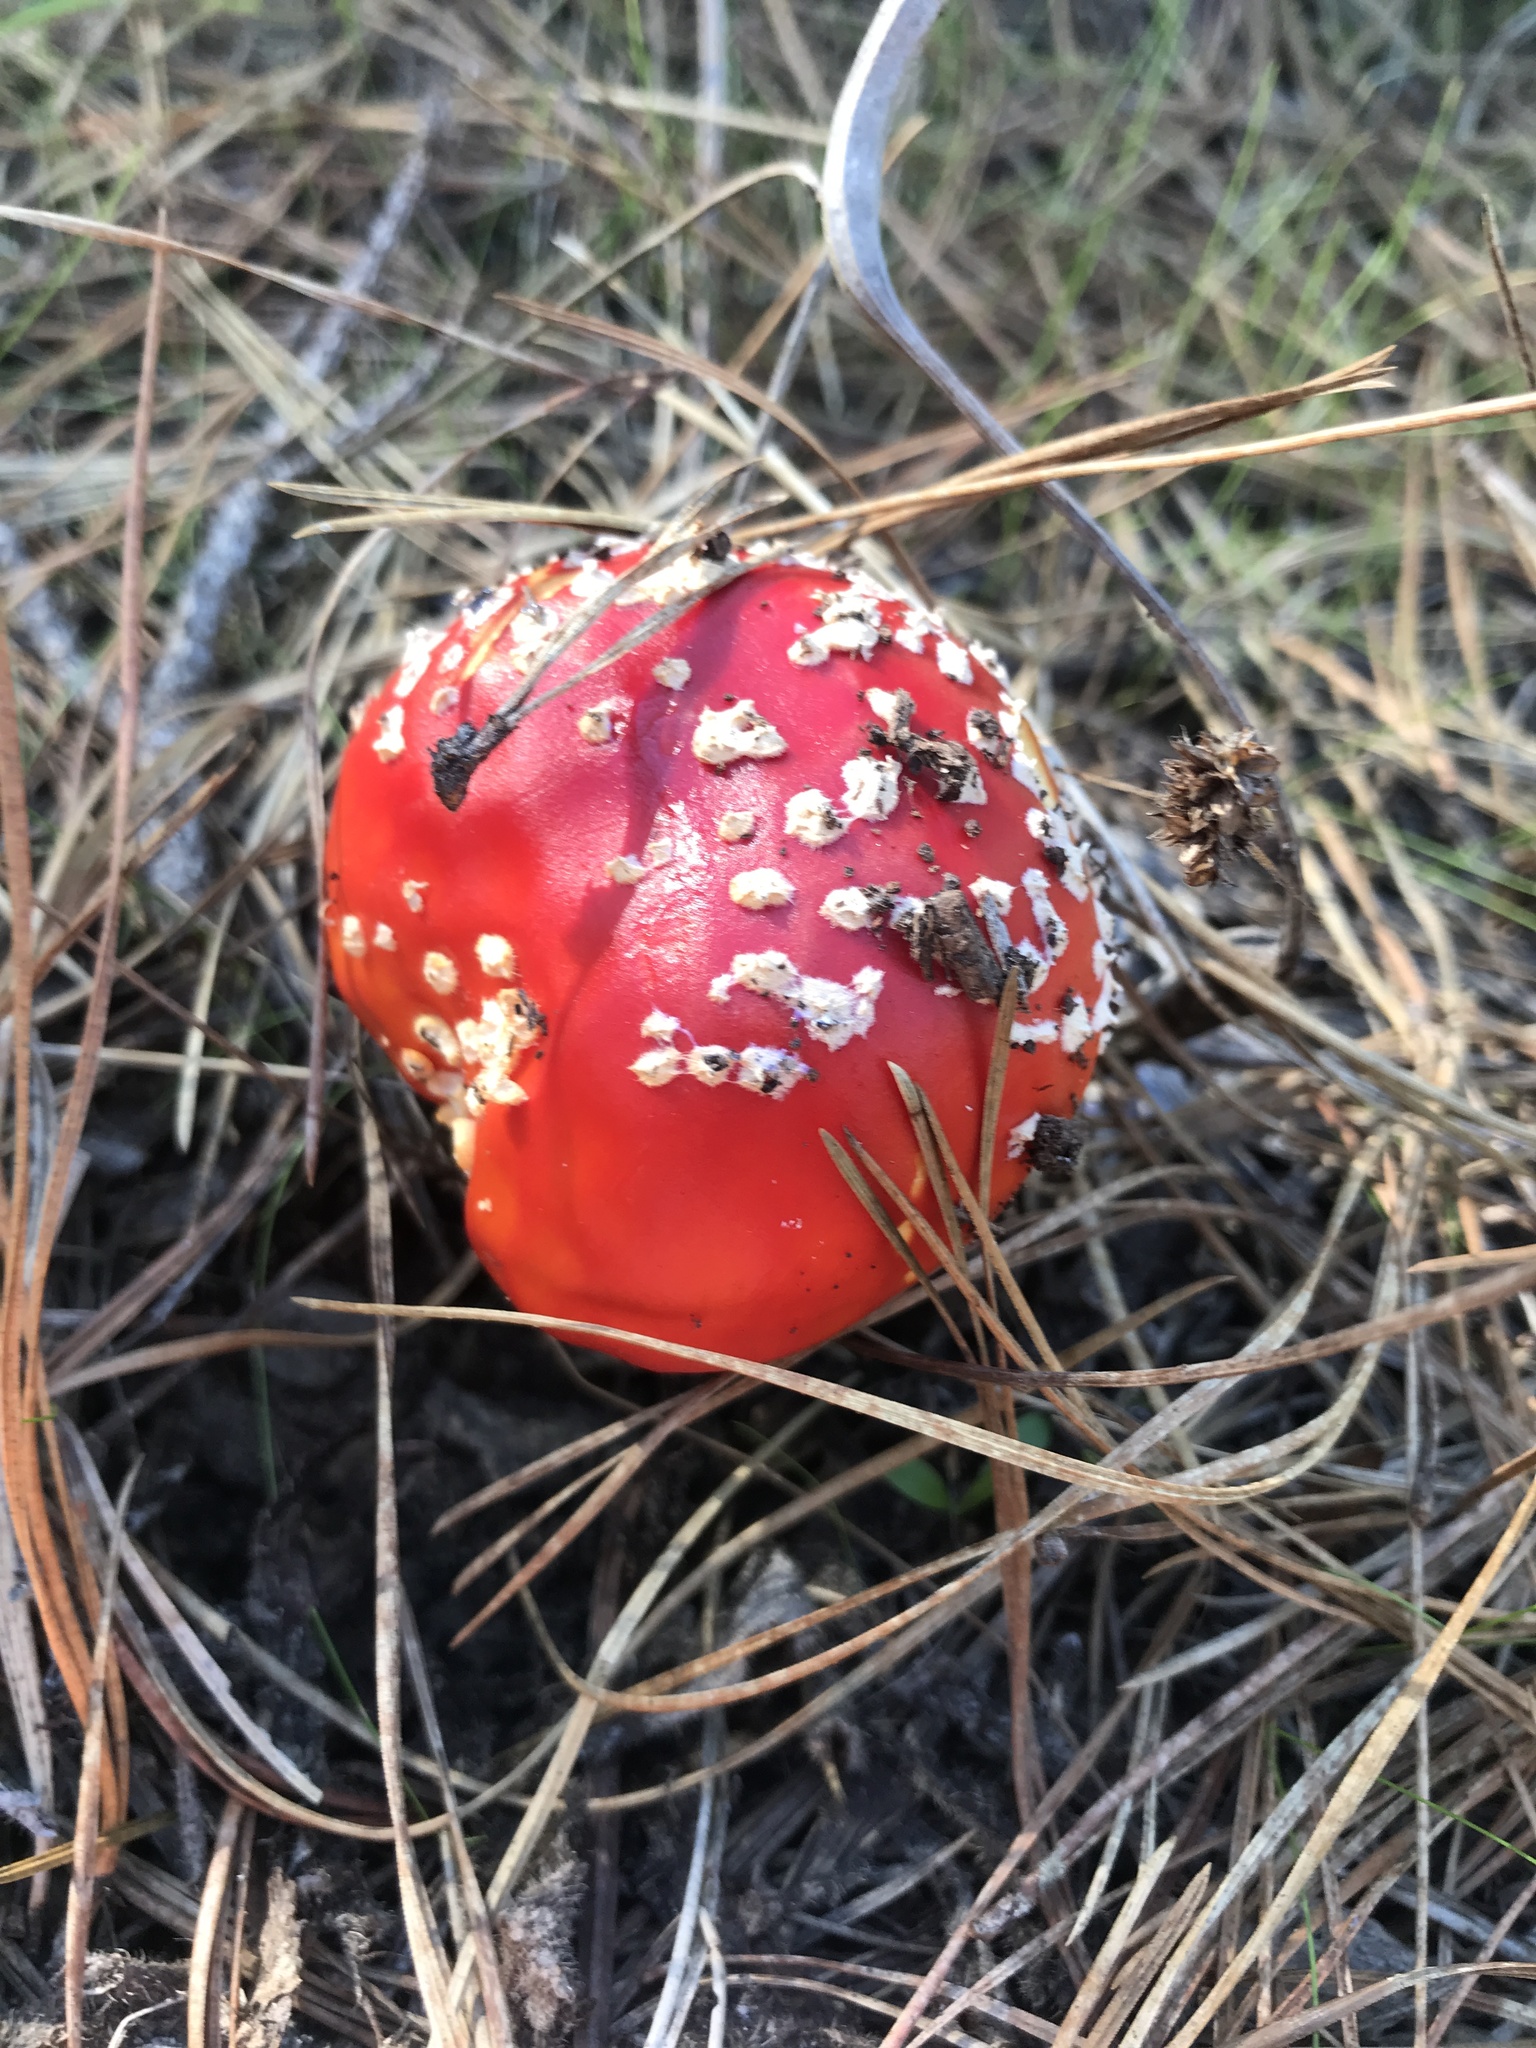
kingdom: Fungi
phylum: Basidiomycota
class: Agaricomycetes
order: Agaricales
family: Amanitaceae
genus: Amanita
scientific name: Amanita muscaria
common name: Fly agaric
